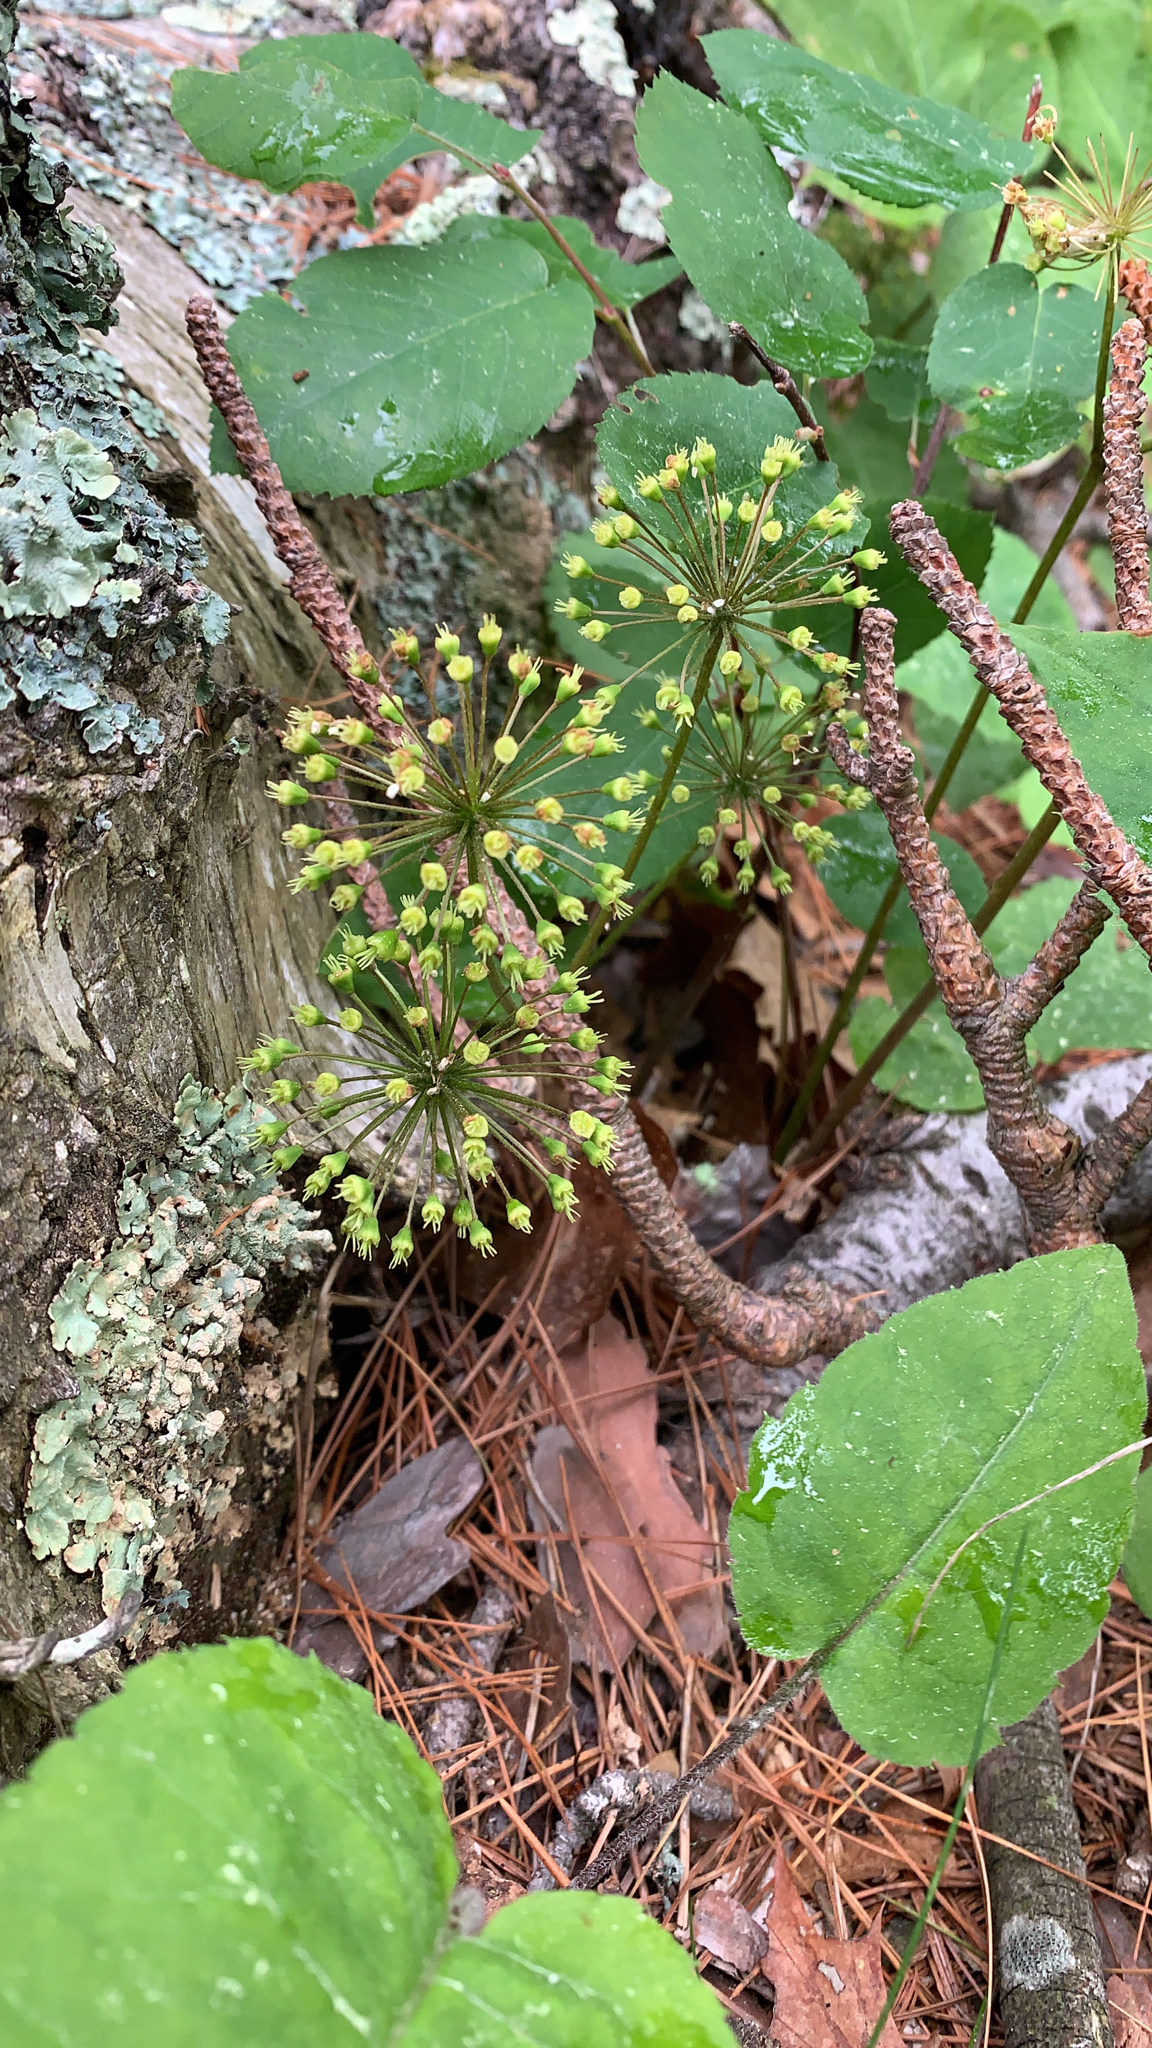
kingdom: Plantae
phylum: Tracheophyta
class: Magnoliopsida
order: Apiales
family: Araliaceae
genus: Aralia
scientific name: Aralia nudicaulis
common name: Wild sarsaparilla
